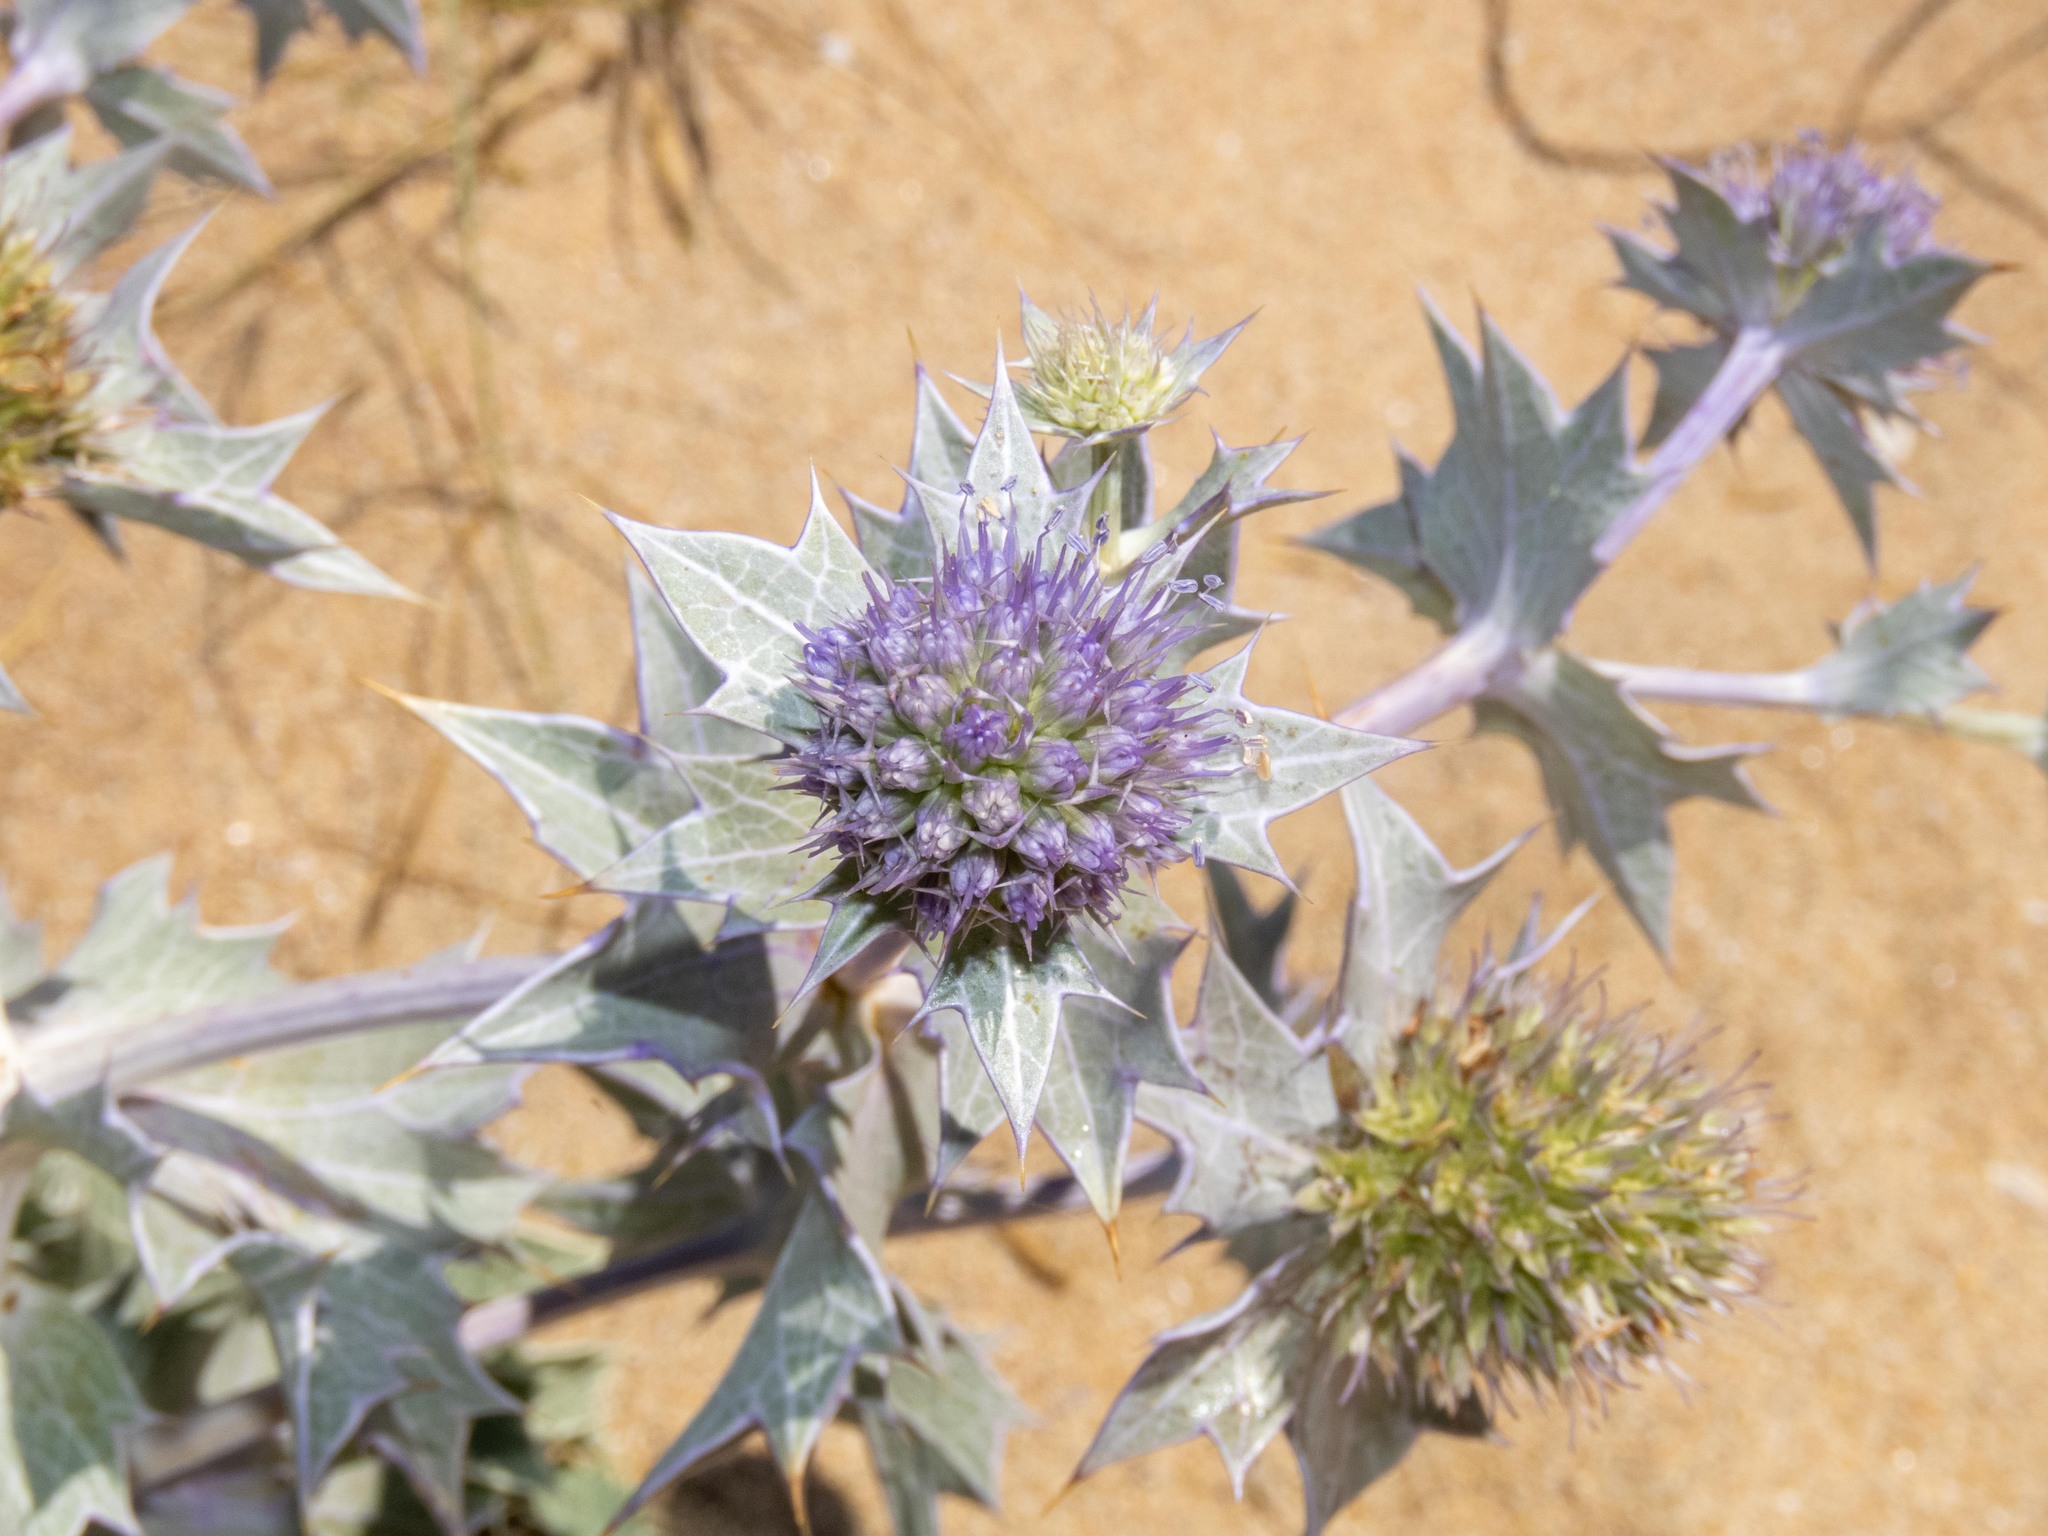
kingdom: Plantae
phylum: Tracheophyta
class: Magnoliopsida
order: Apiales
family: Apiaceae
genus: Eryngium
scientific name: Eryngium maritimum
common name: Sea-holly
